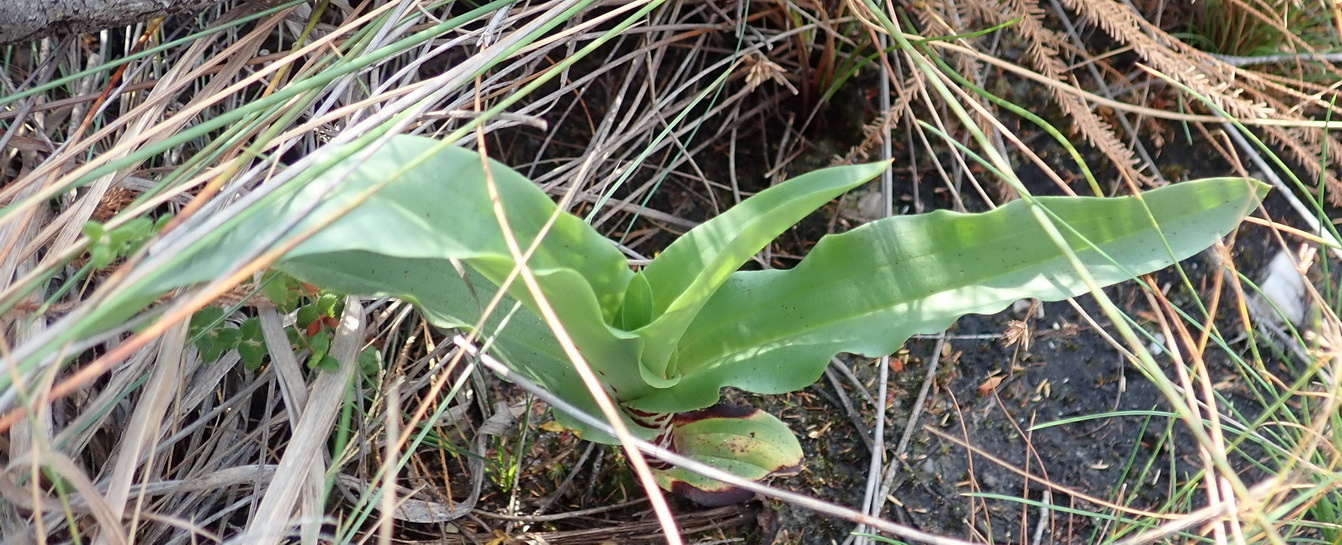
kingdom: Plantae
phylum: Tracheophyta
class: Liliopsida
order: Asparagales
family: Orchidaceae
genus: Disa
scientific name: Disa cornuta
